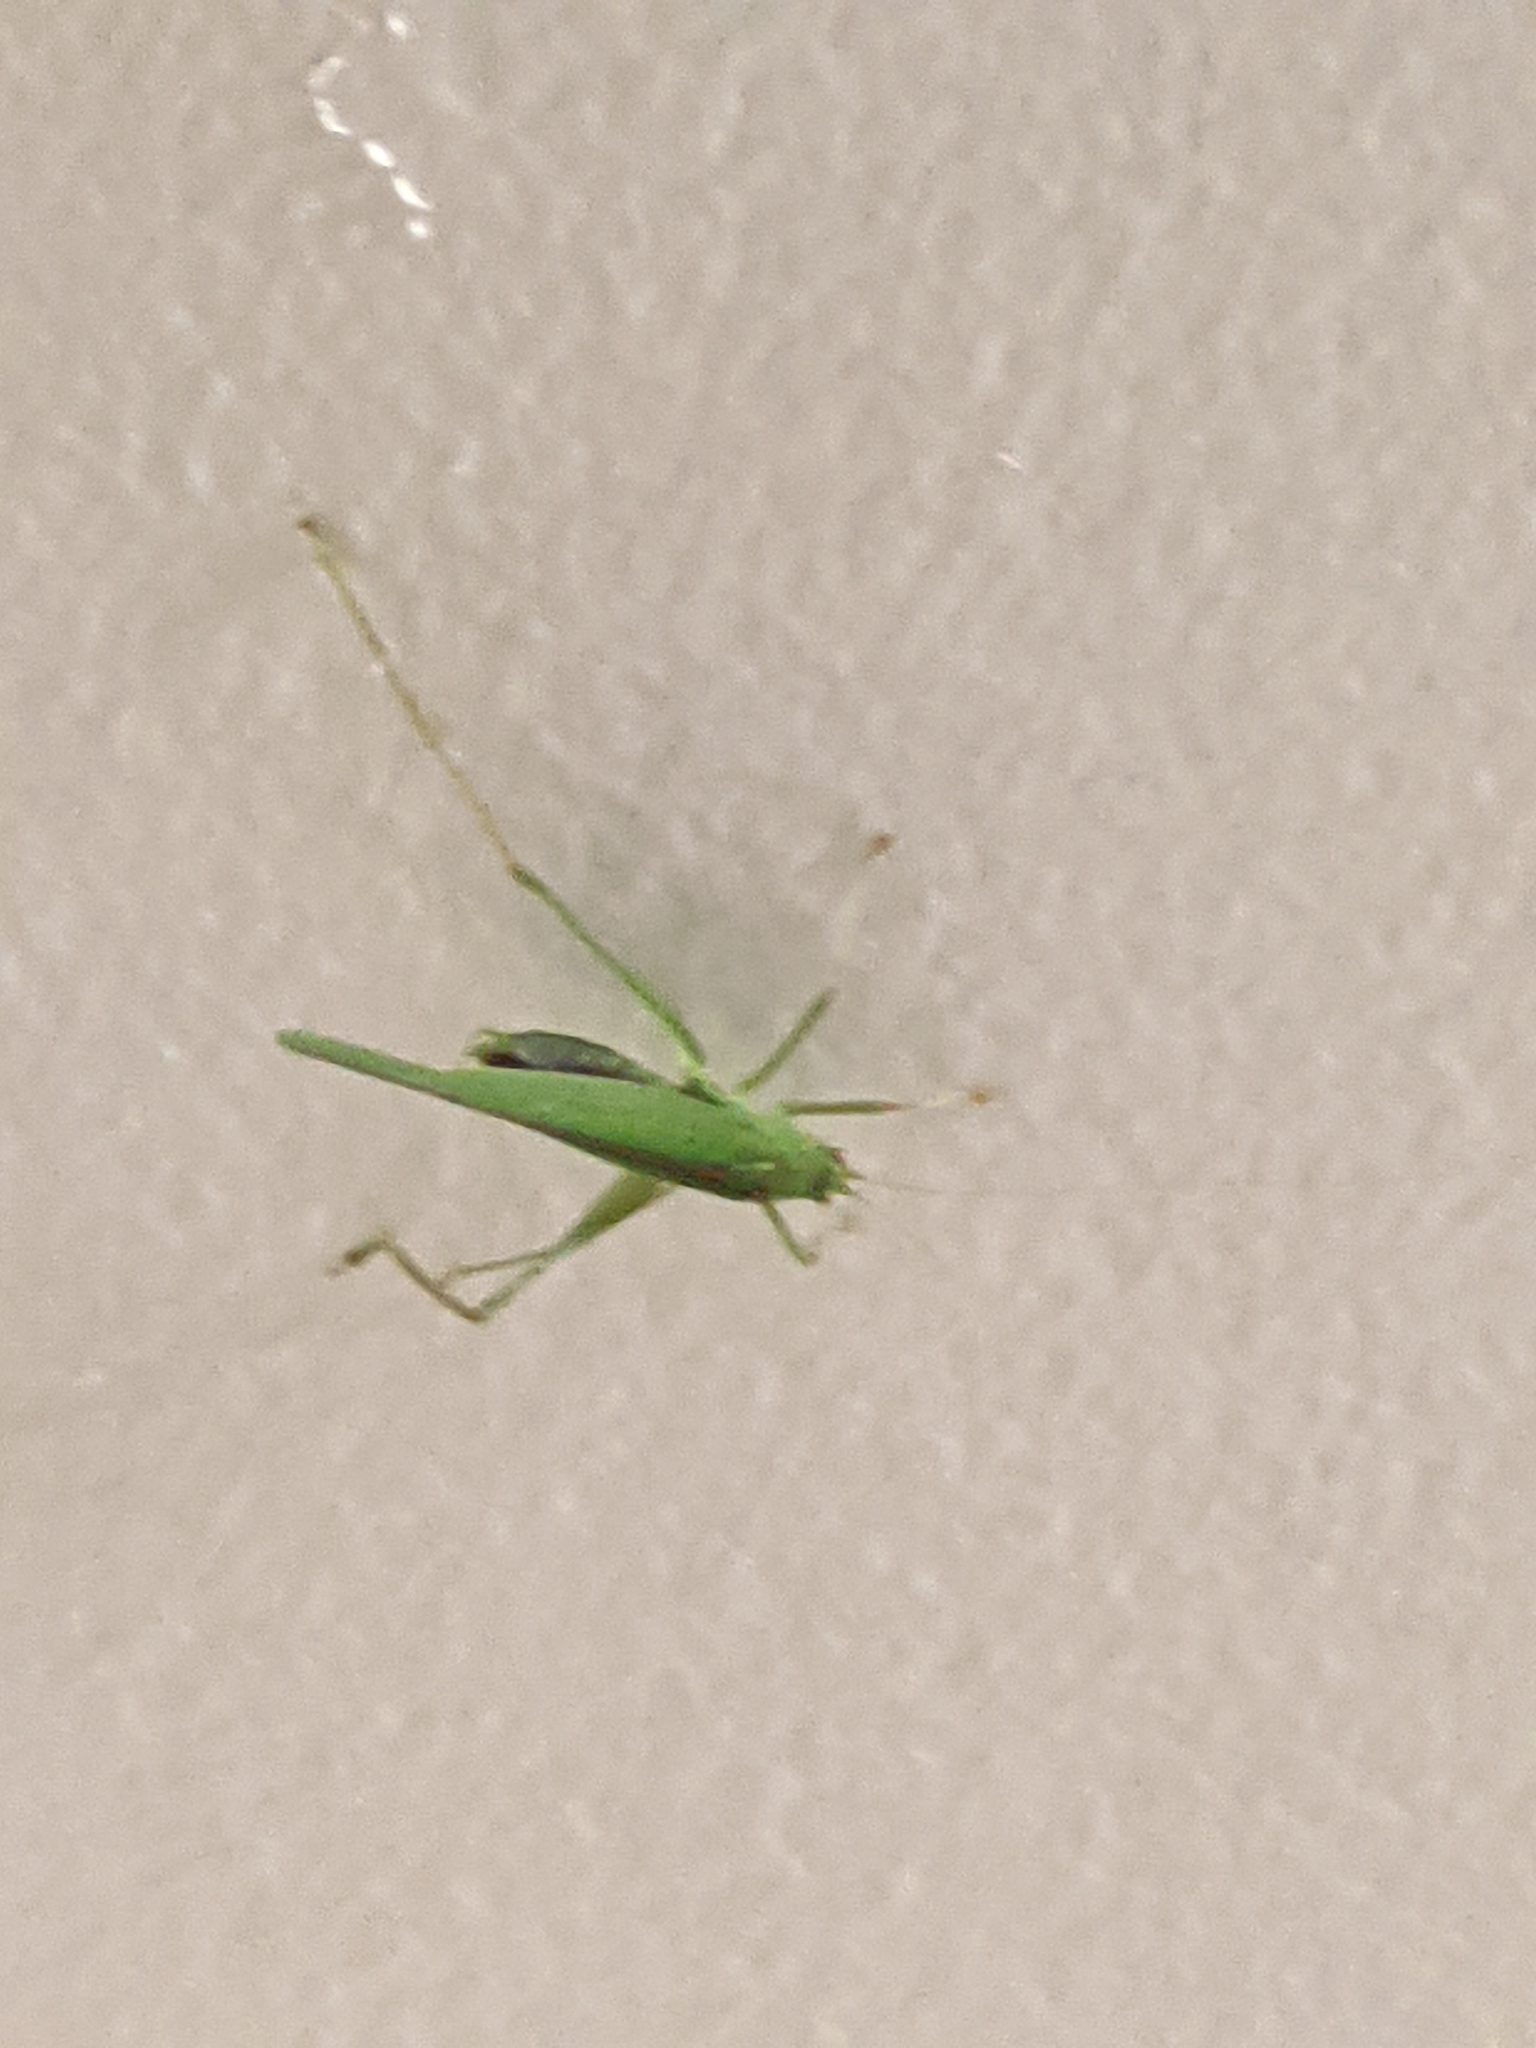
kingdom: Animalia
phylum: Arthropoda
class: Insecta
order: Orthoptera
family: Tettigoniidae
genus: Phaneroptera
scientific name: Phaneroptera nana
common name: Southern sickle bush-cricket
